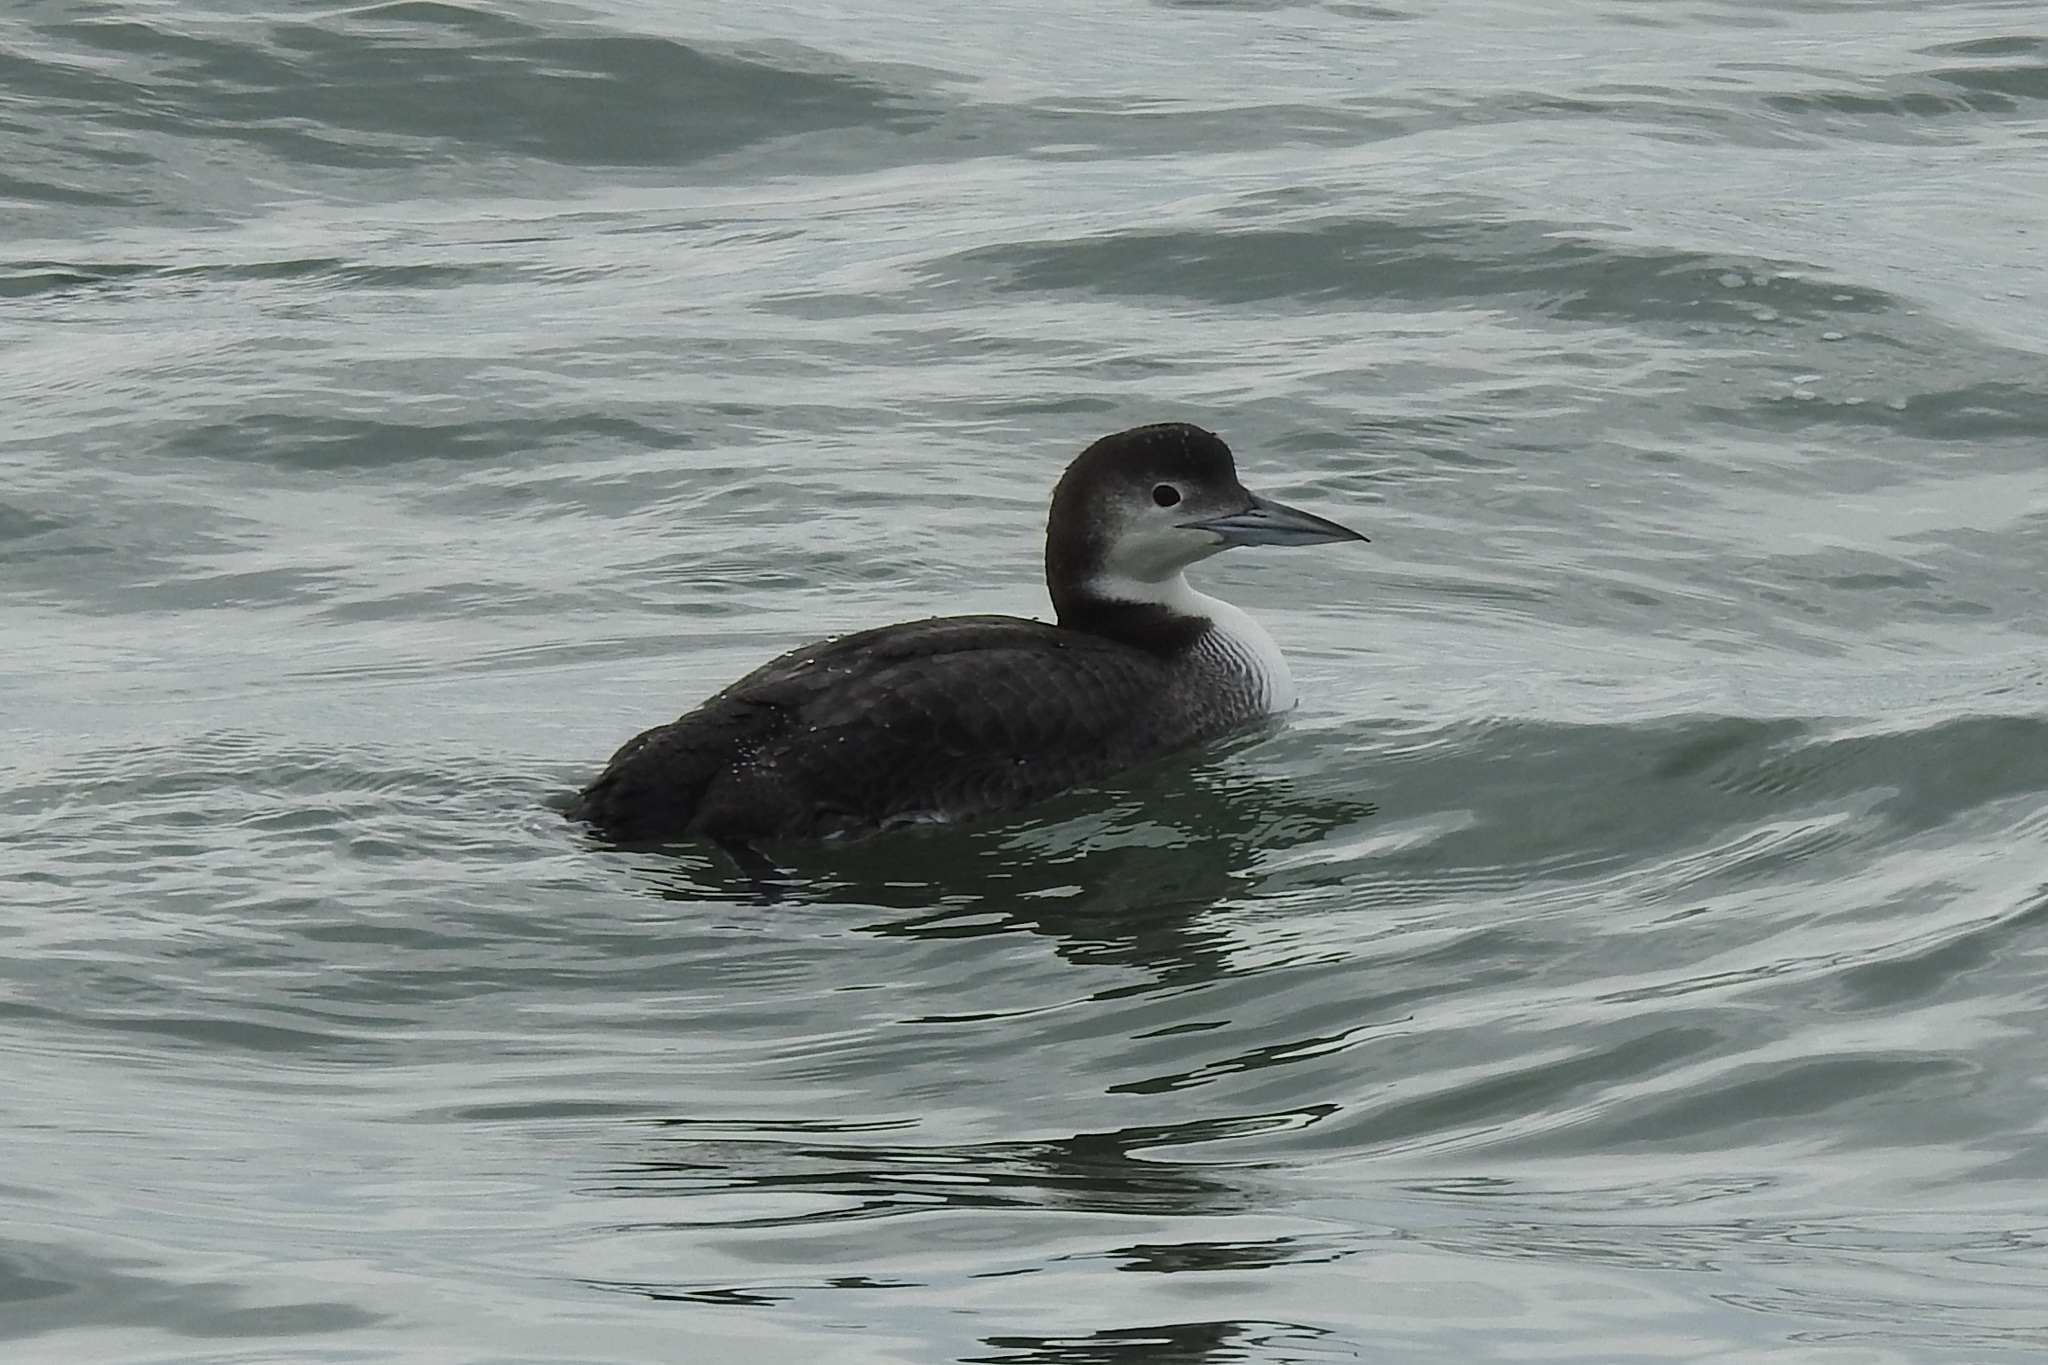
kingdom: Animalia
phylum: Chordata
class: Aves
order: Gaviiformes
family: Gaviidae
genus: Gavia
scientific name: Gavia immer
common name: Common loon
